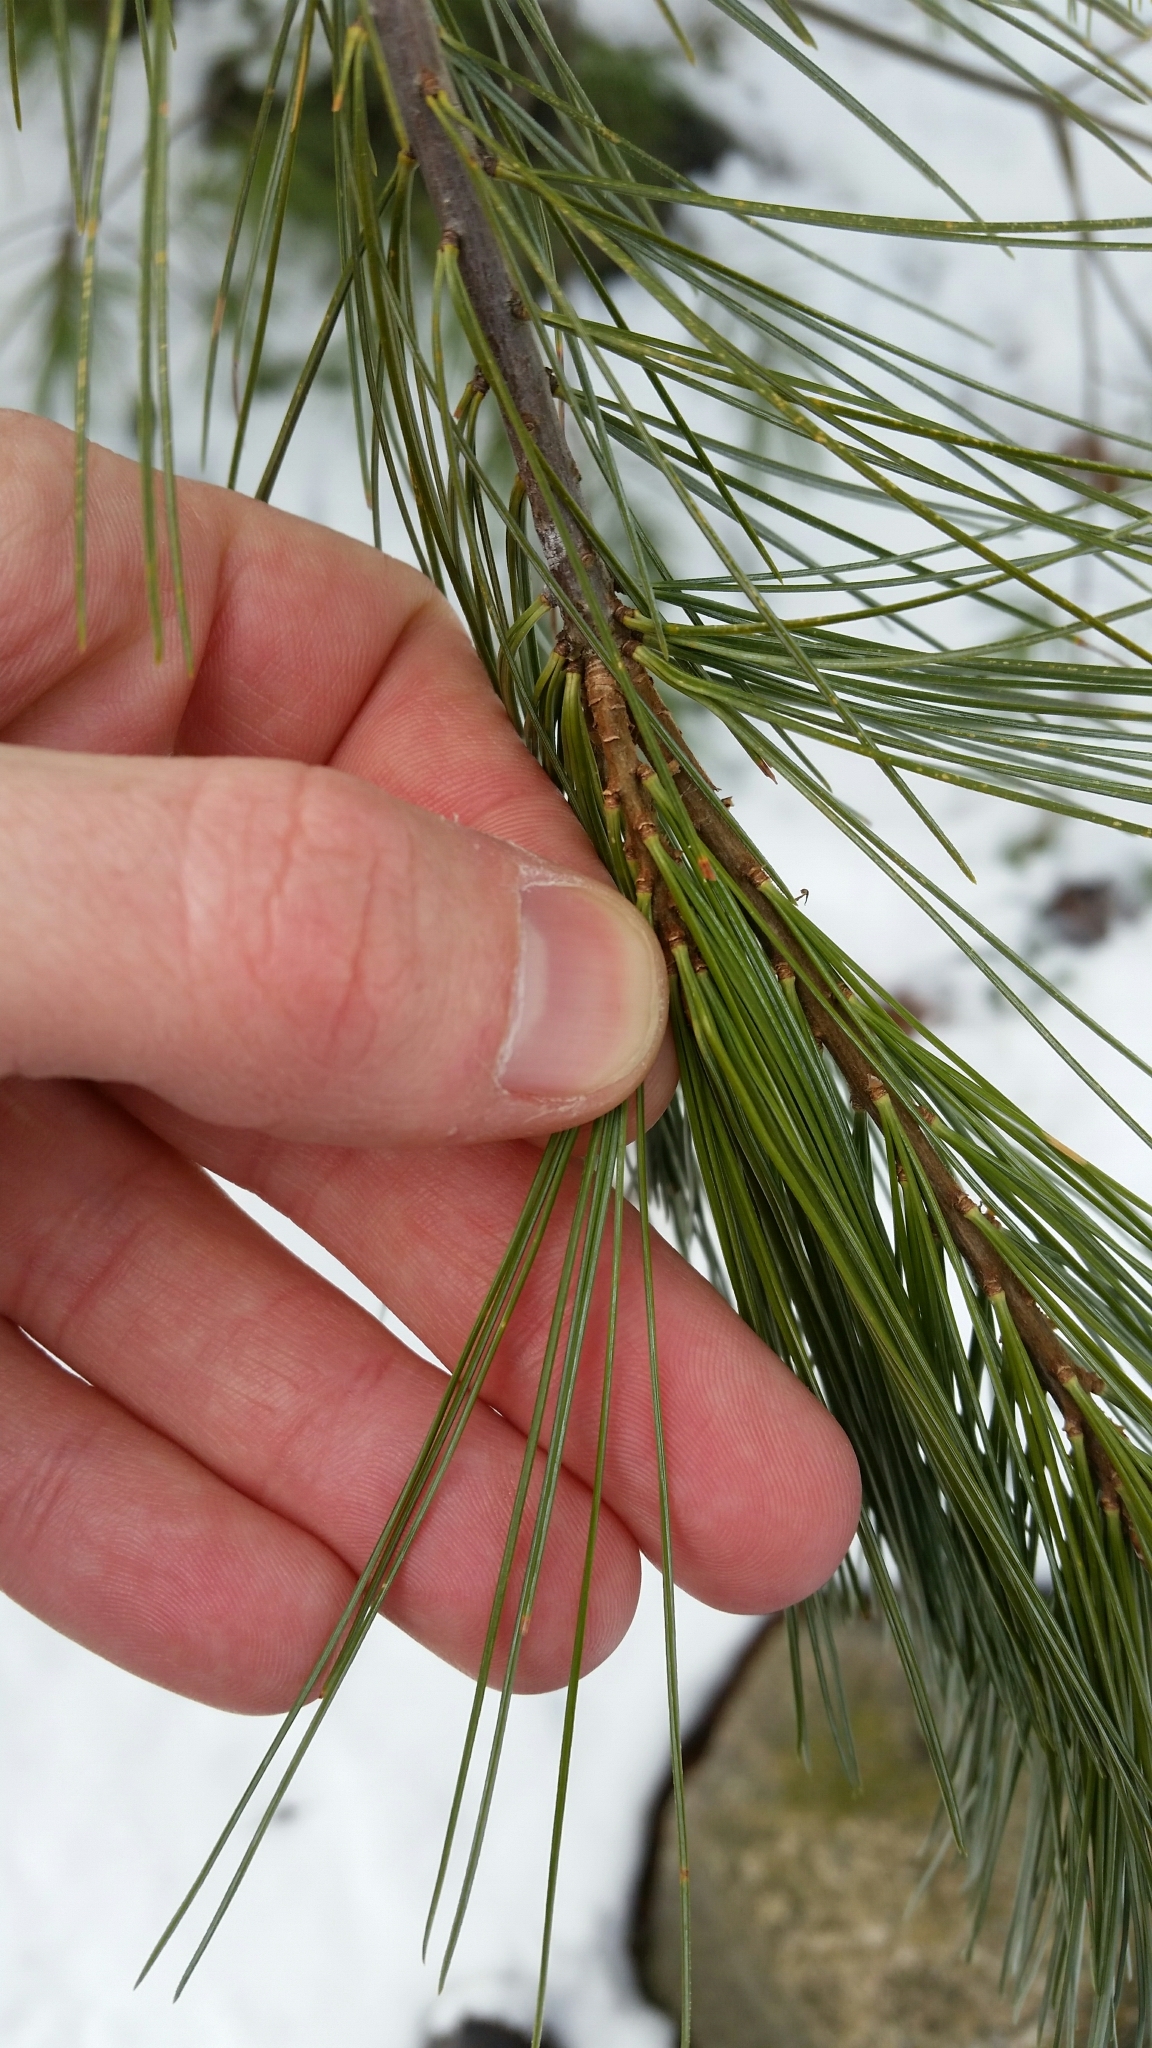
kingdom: Plantae
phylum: Tracheophyta
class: Pinopsida
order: Pinales
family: Pinaceae
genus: Pinus
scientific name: Pinus strobus
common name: Weymouth pine
